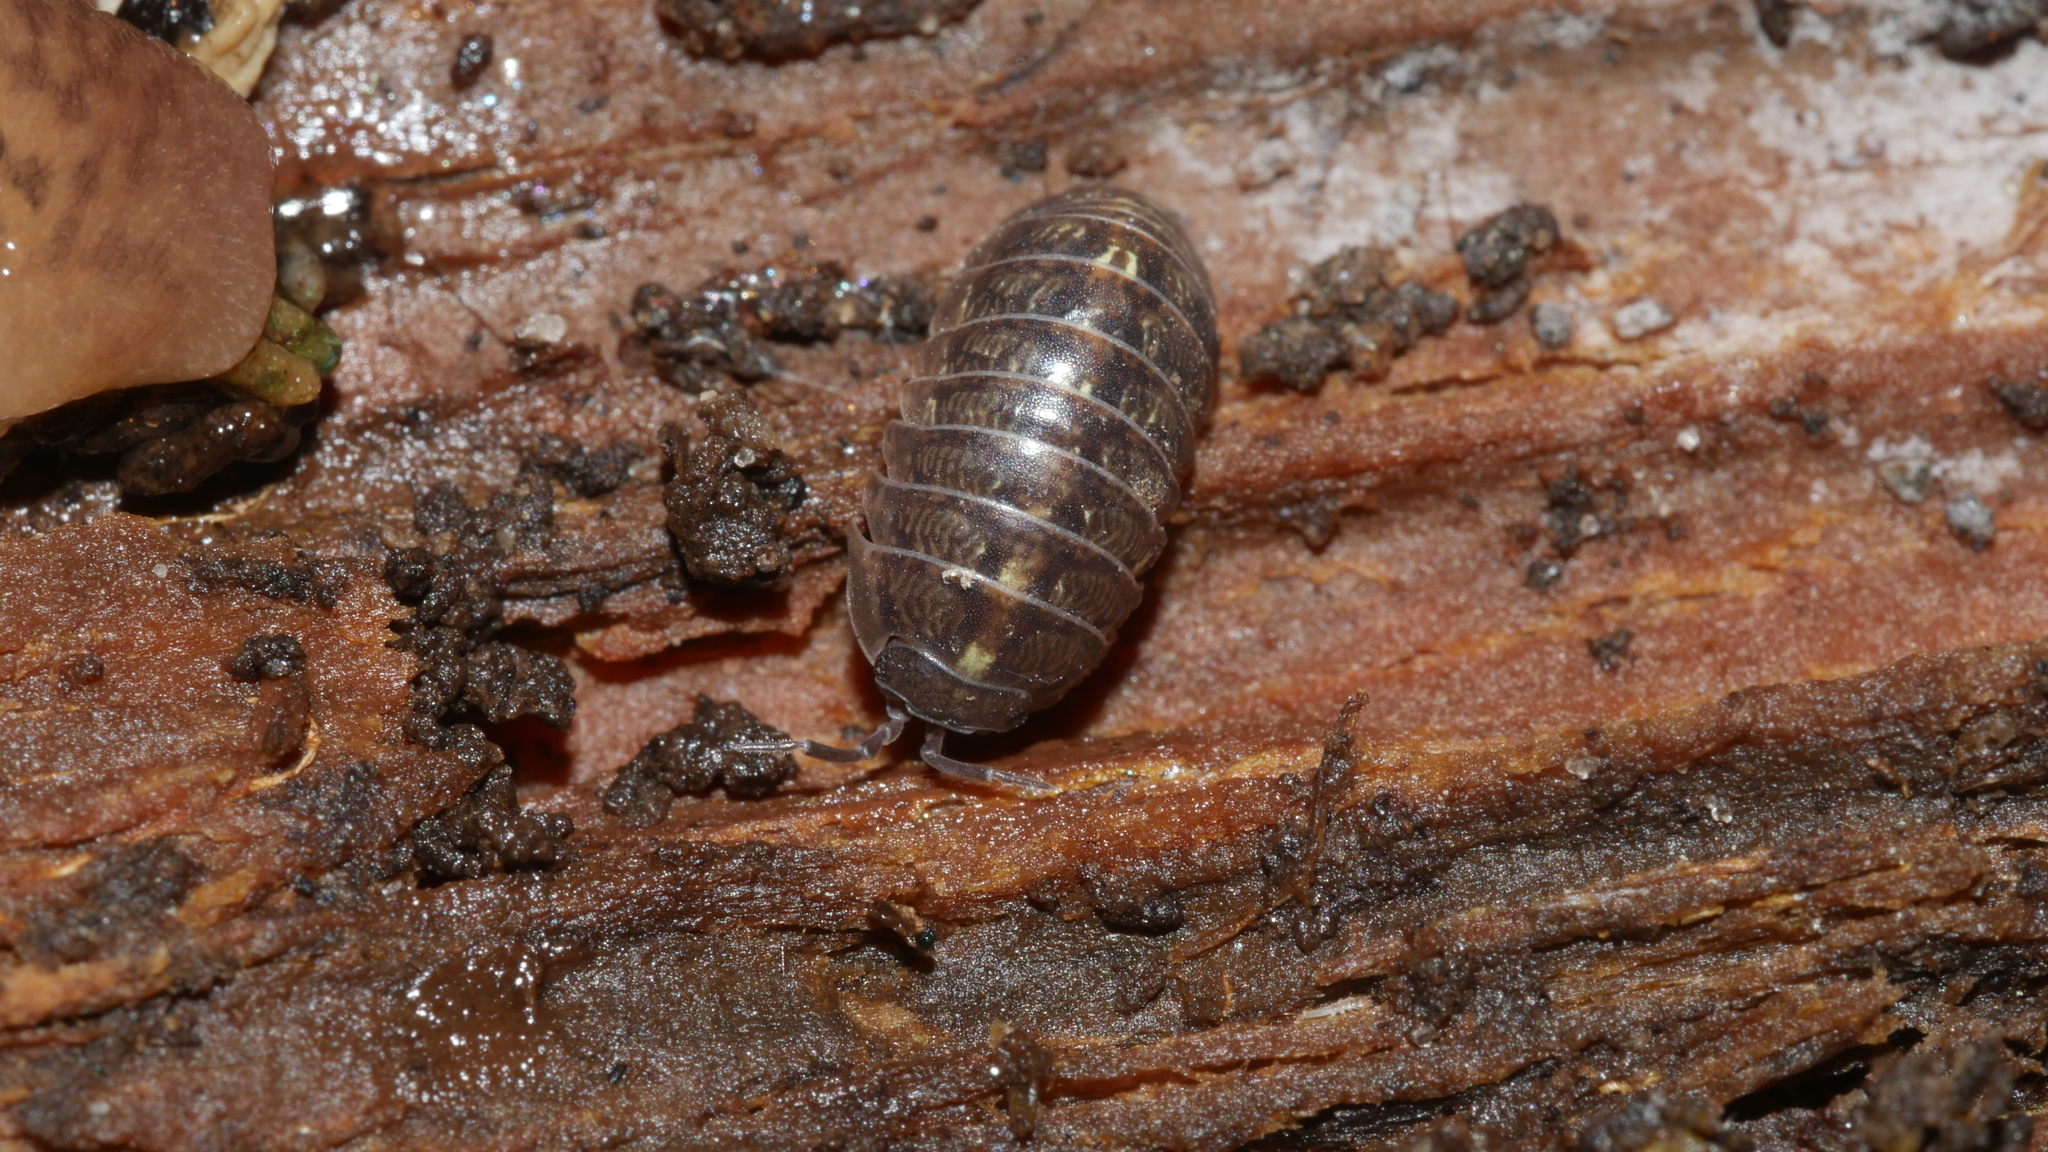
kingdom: Animalia
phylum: Arthropoda
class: Malacostraca
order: Isopoda
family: Armadillidiidae
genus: Armadillidium
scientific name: Armadillidium vulgare
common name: Common pill woodlouse
